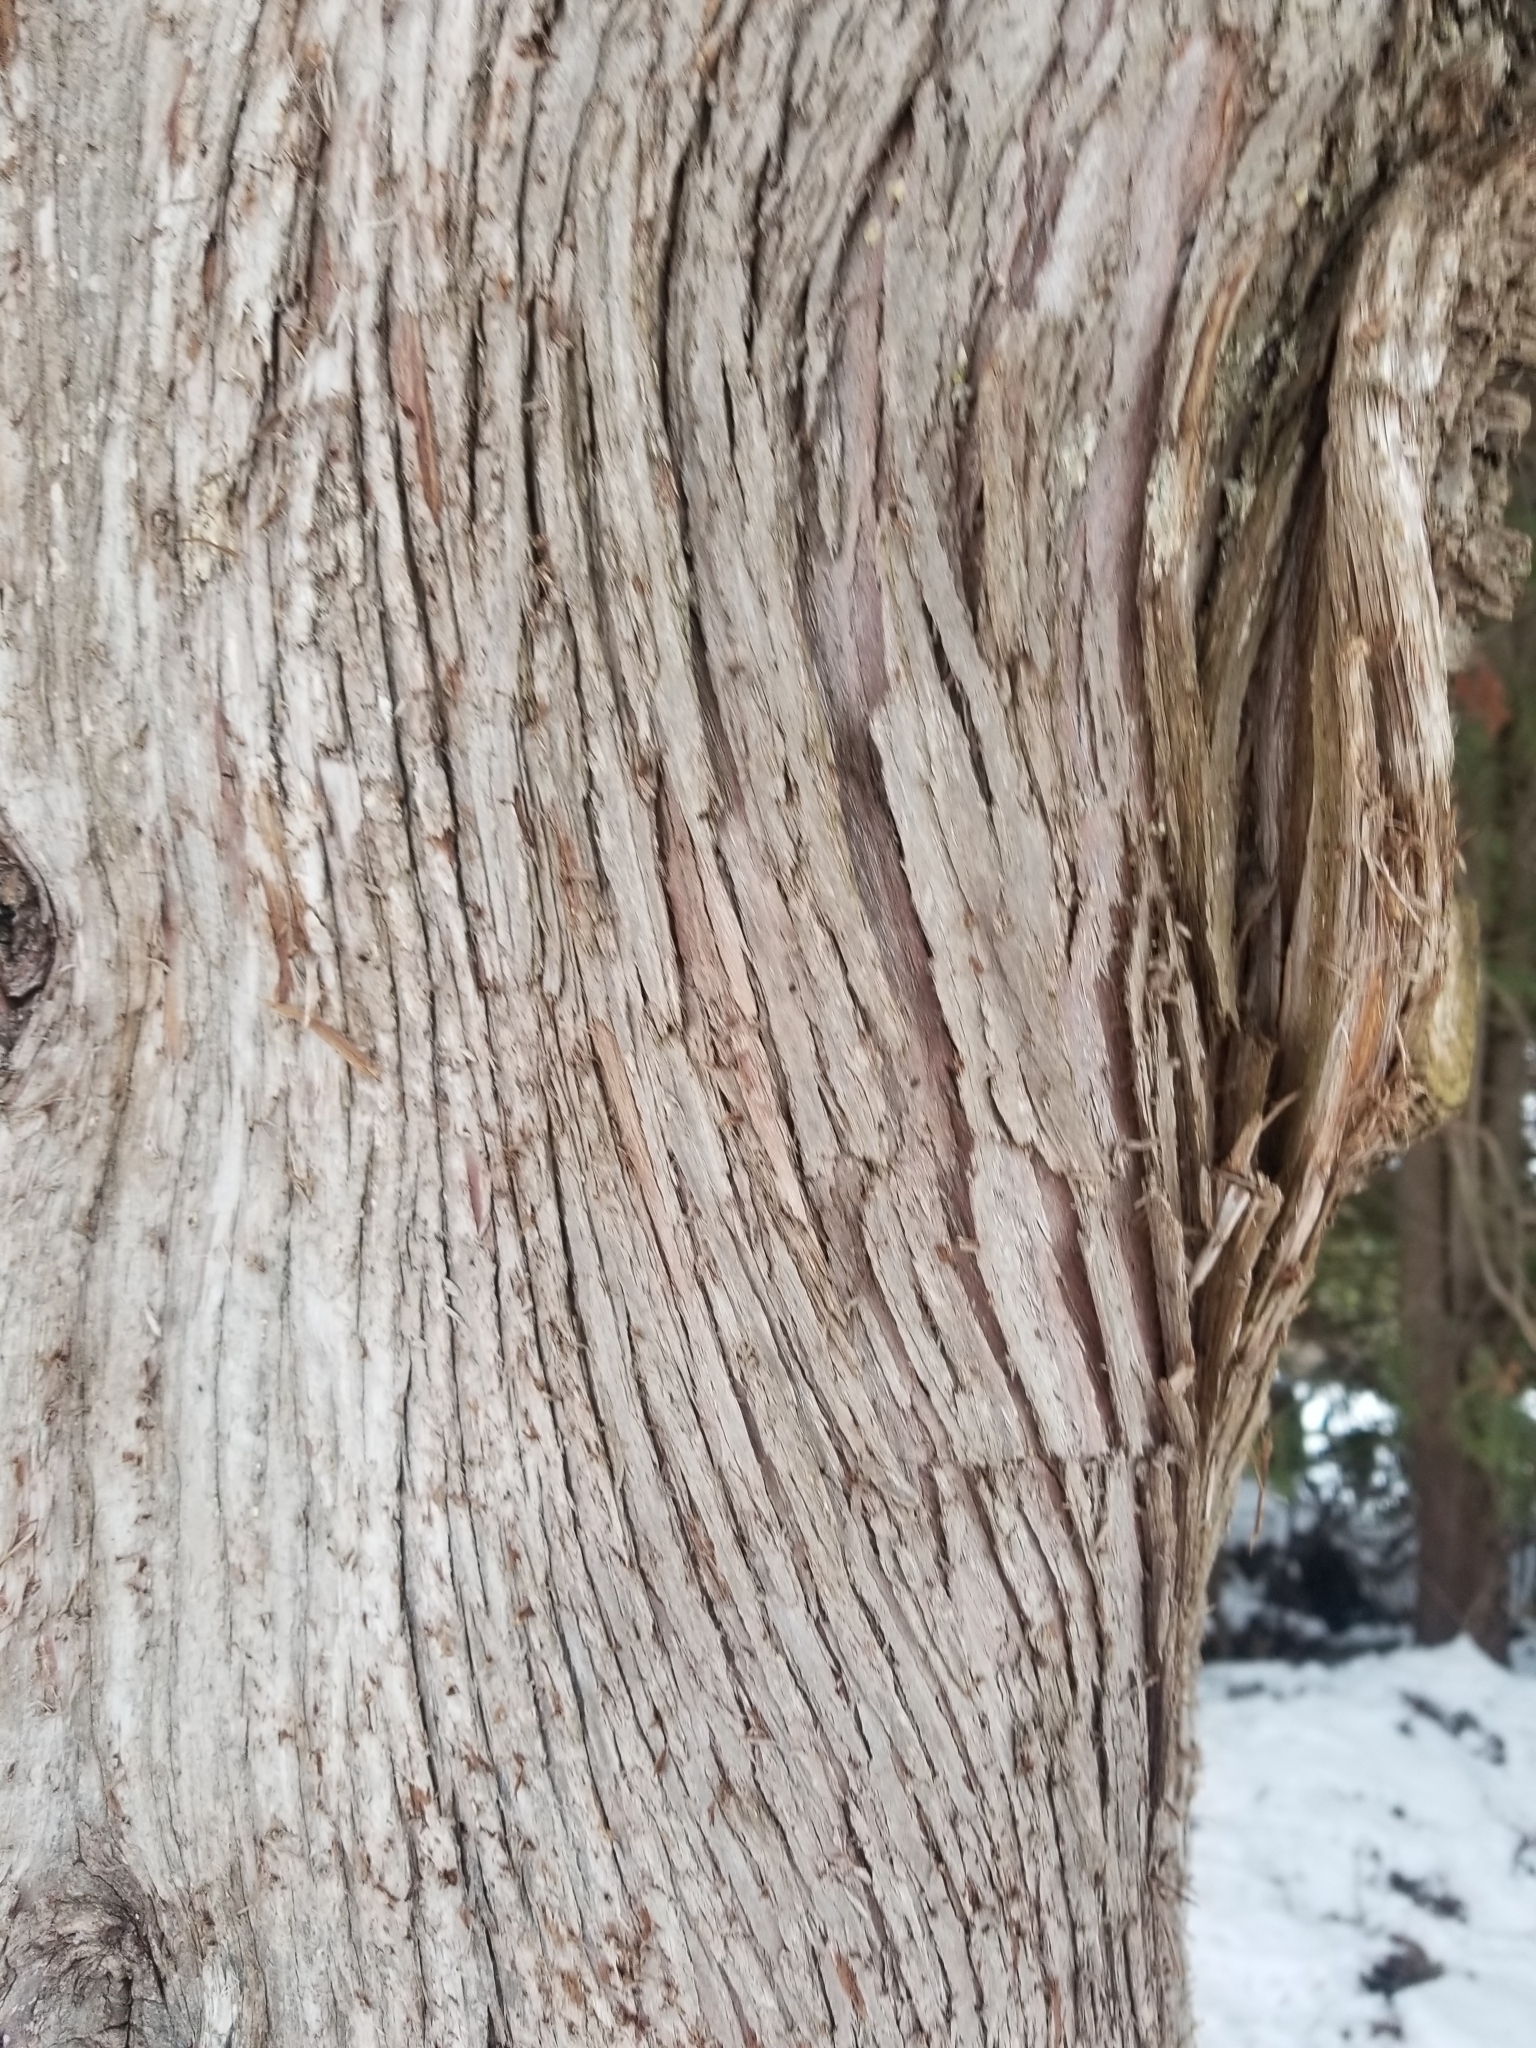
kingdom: Plantae
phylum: Tracheophyta
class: Pinopsida
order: Pinales
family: Cupressaceae
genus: Thuja
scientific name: Thuja occidentalis
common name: Northern white-cedar
